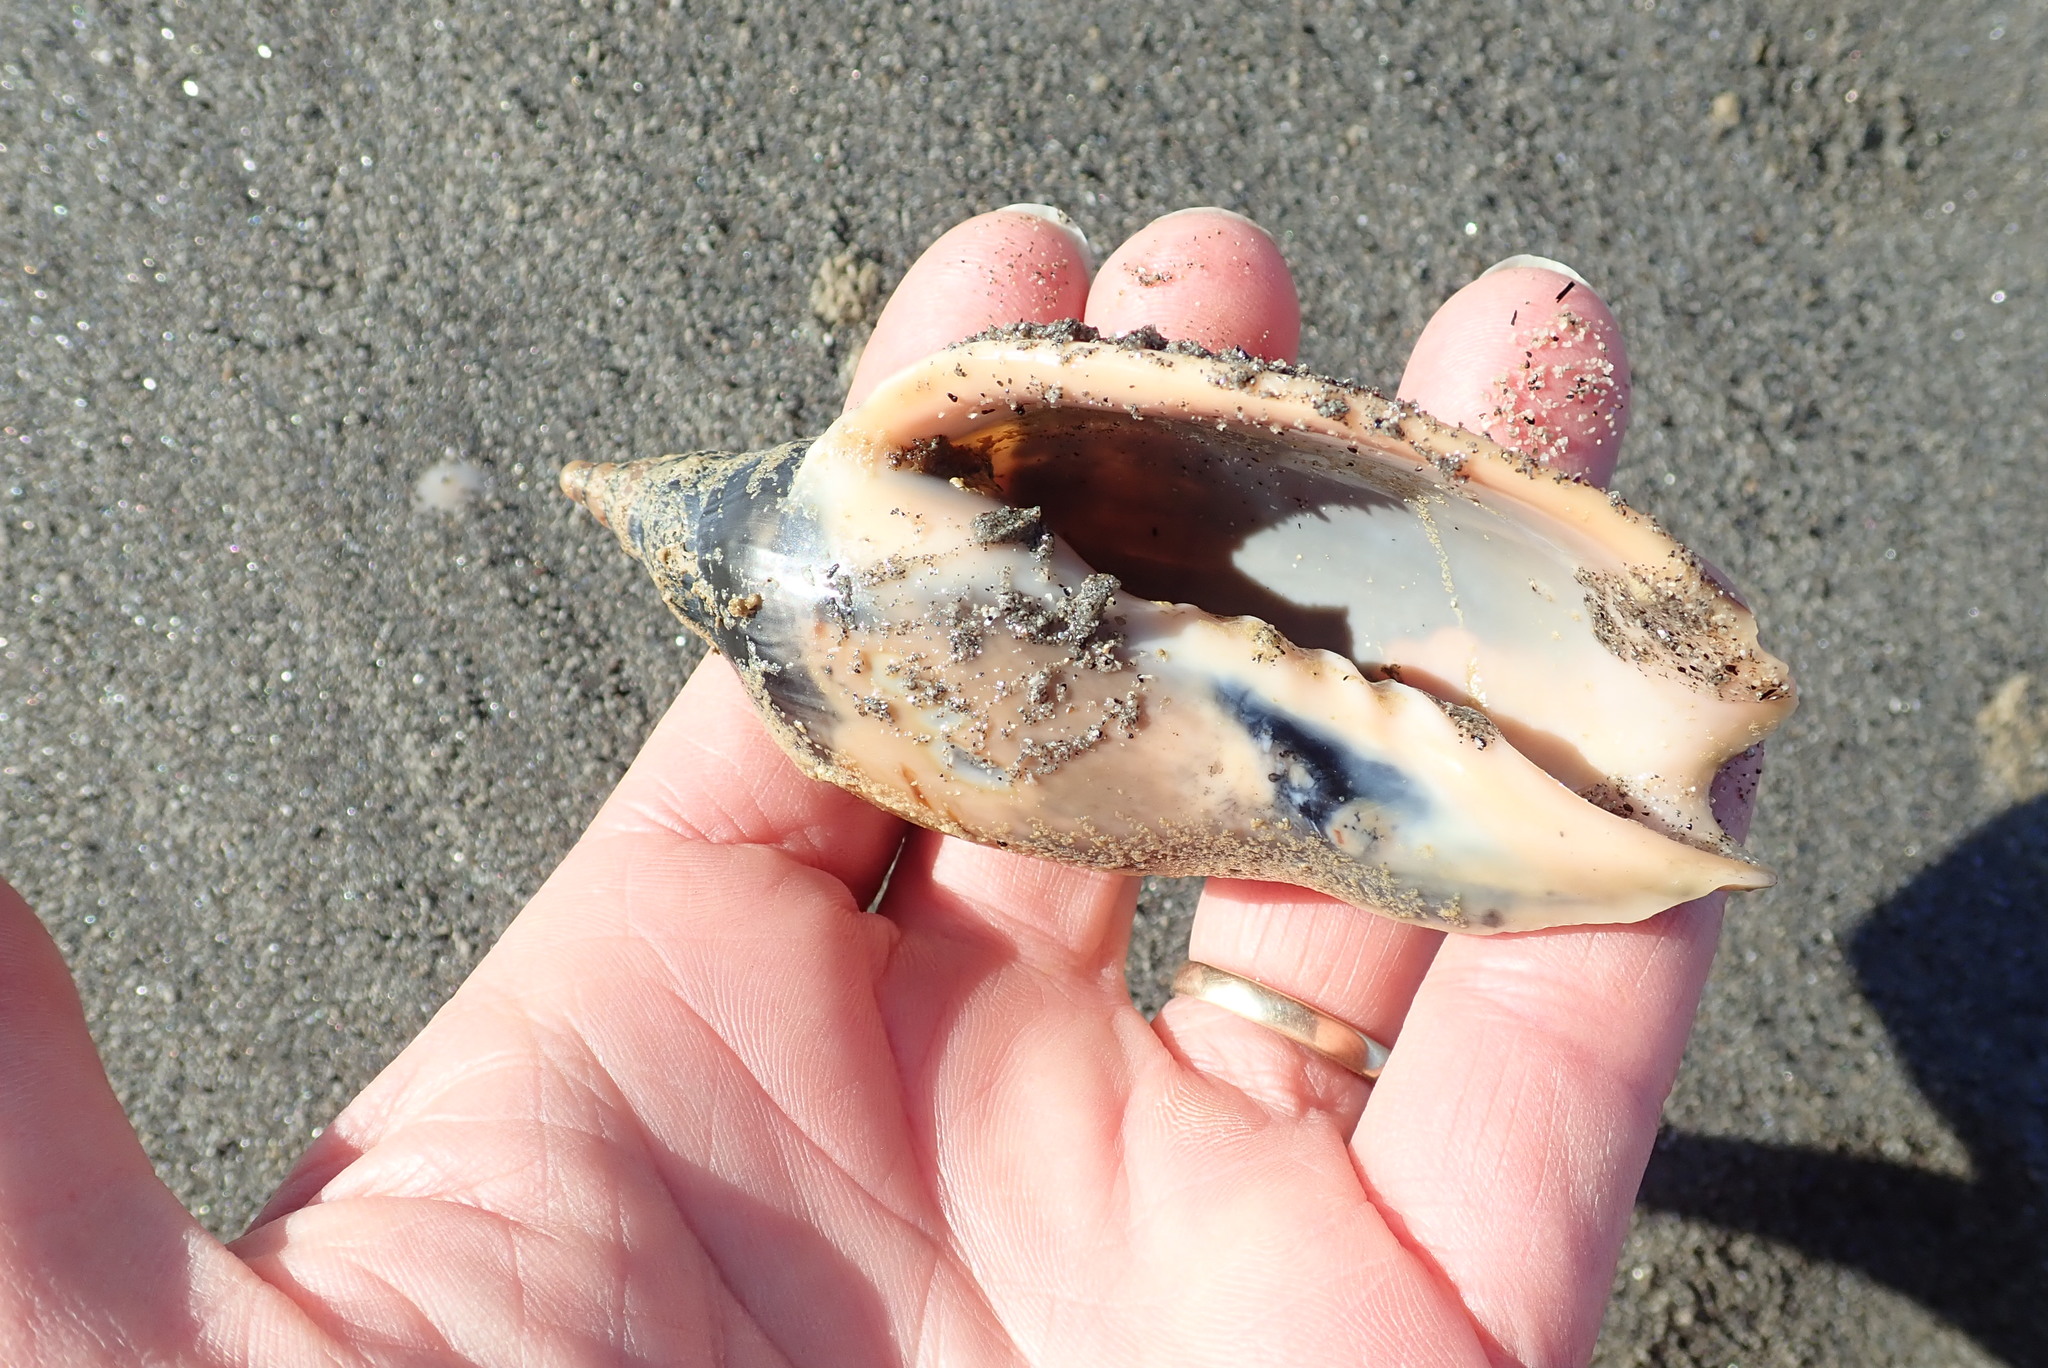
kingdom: Animalia
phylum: Mollusca
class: Gastropoda
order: Neogastropoda
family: Volutidae
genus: Alcithoe
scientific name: Alcithoe arabica
